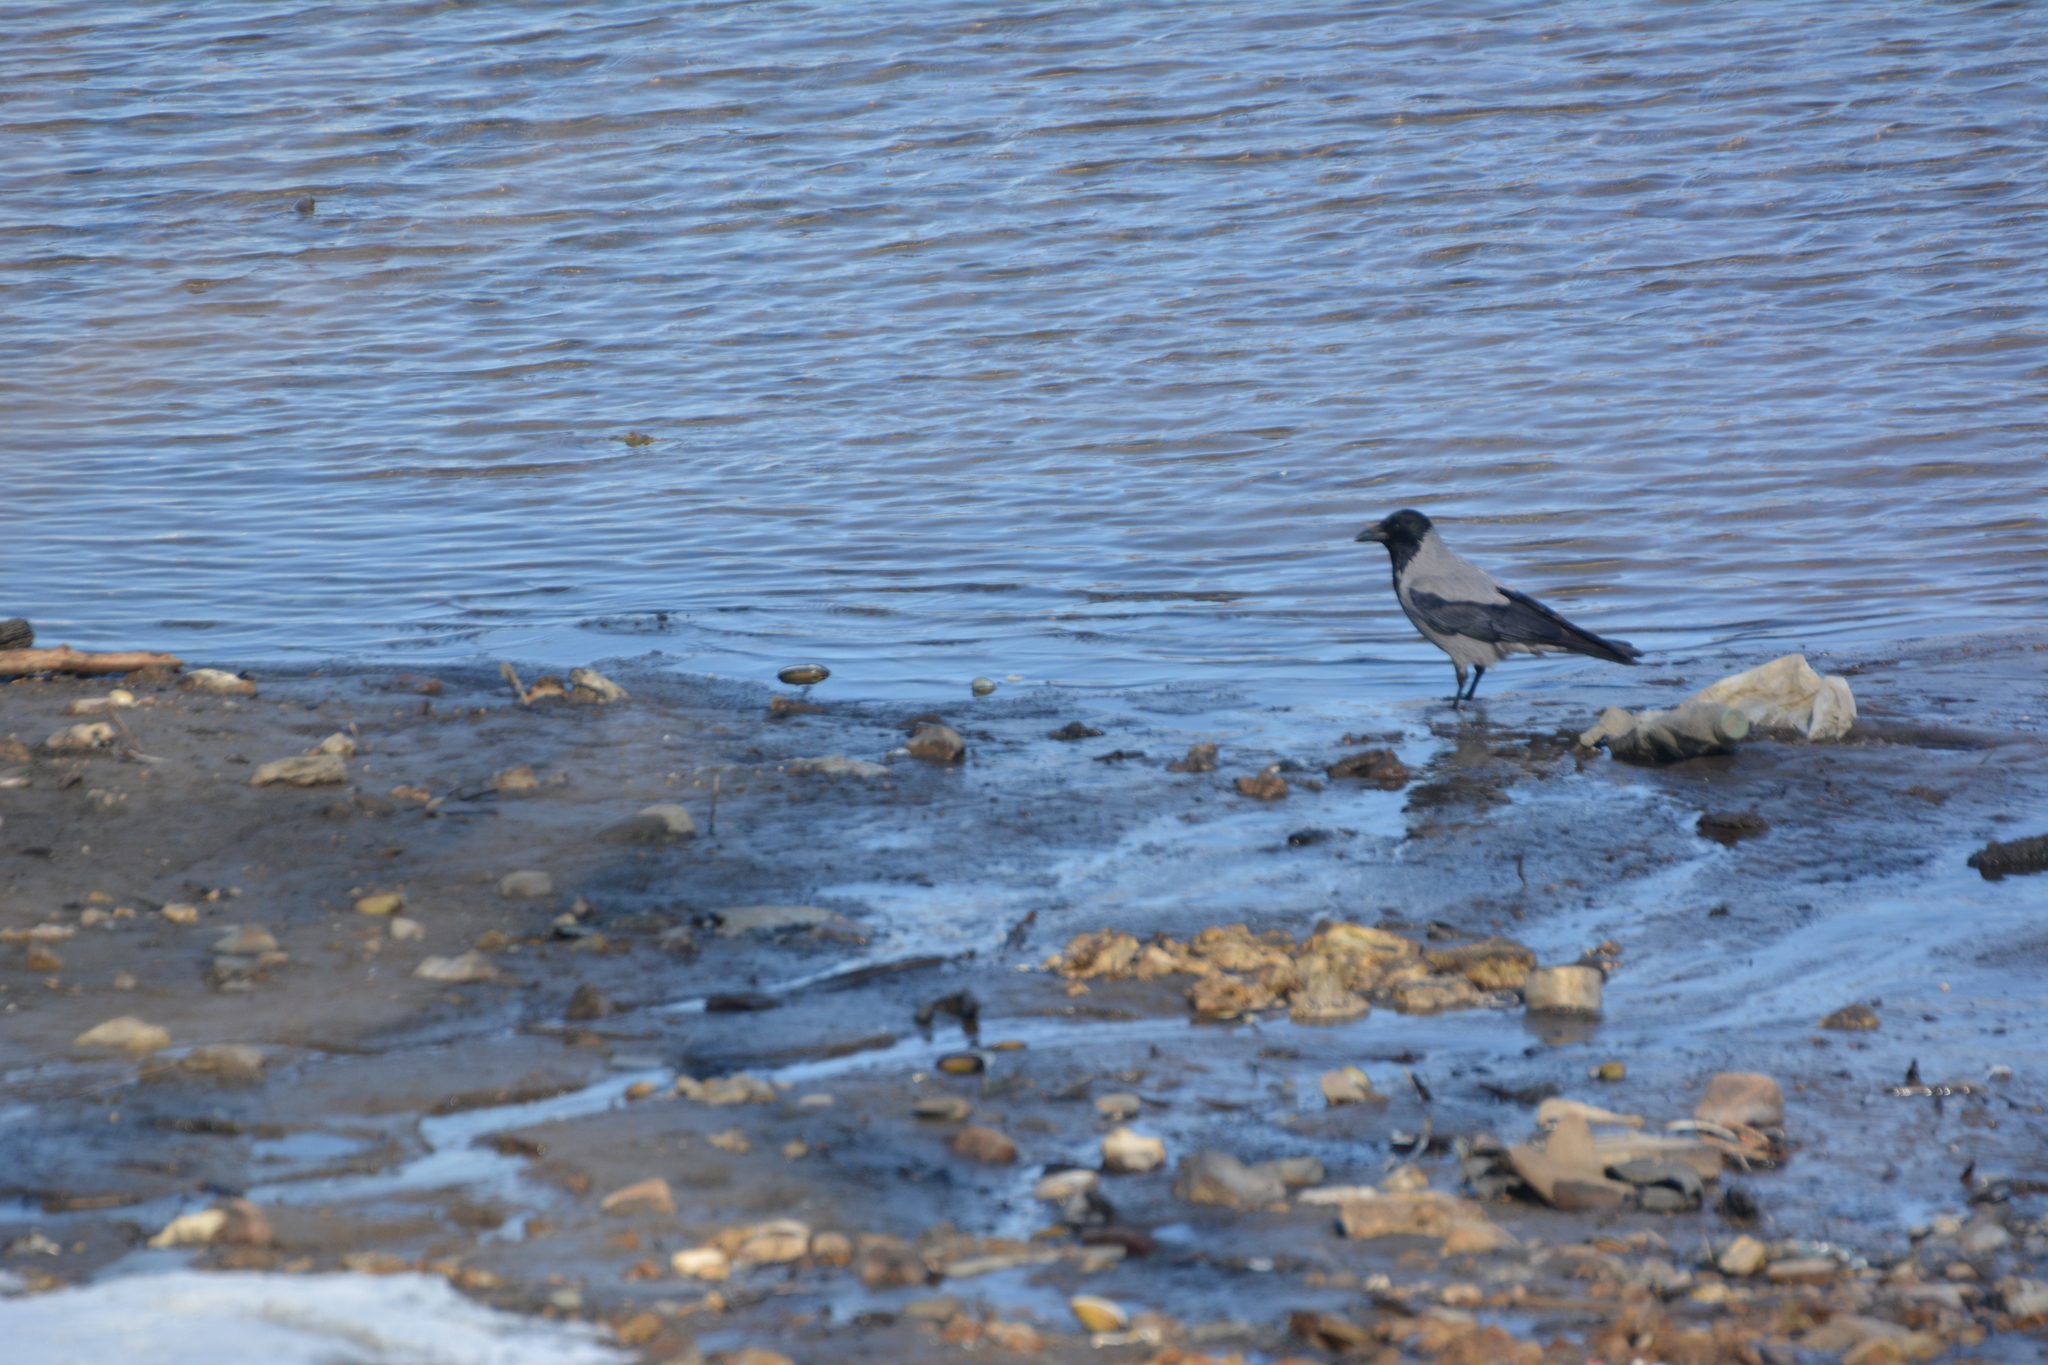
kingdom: Animalia
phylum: Chordata
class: Aves
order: Passeriformes
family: Corvidae
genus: Corvus
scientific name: Corvus cornix
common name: Hooded crow
